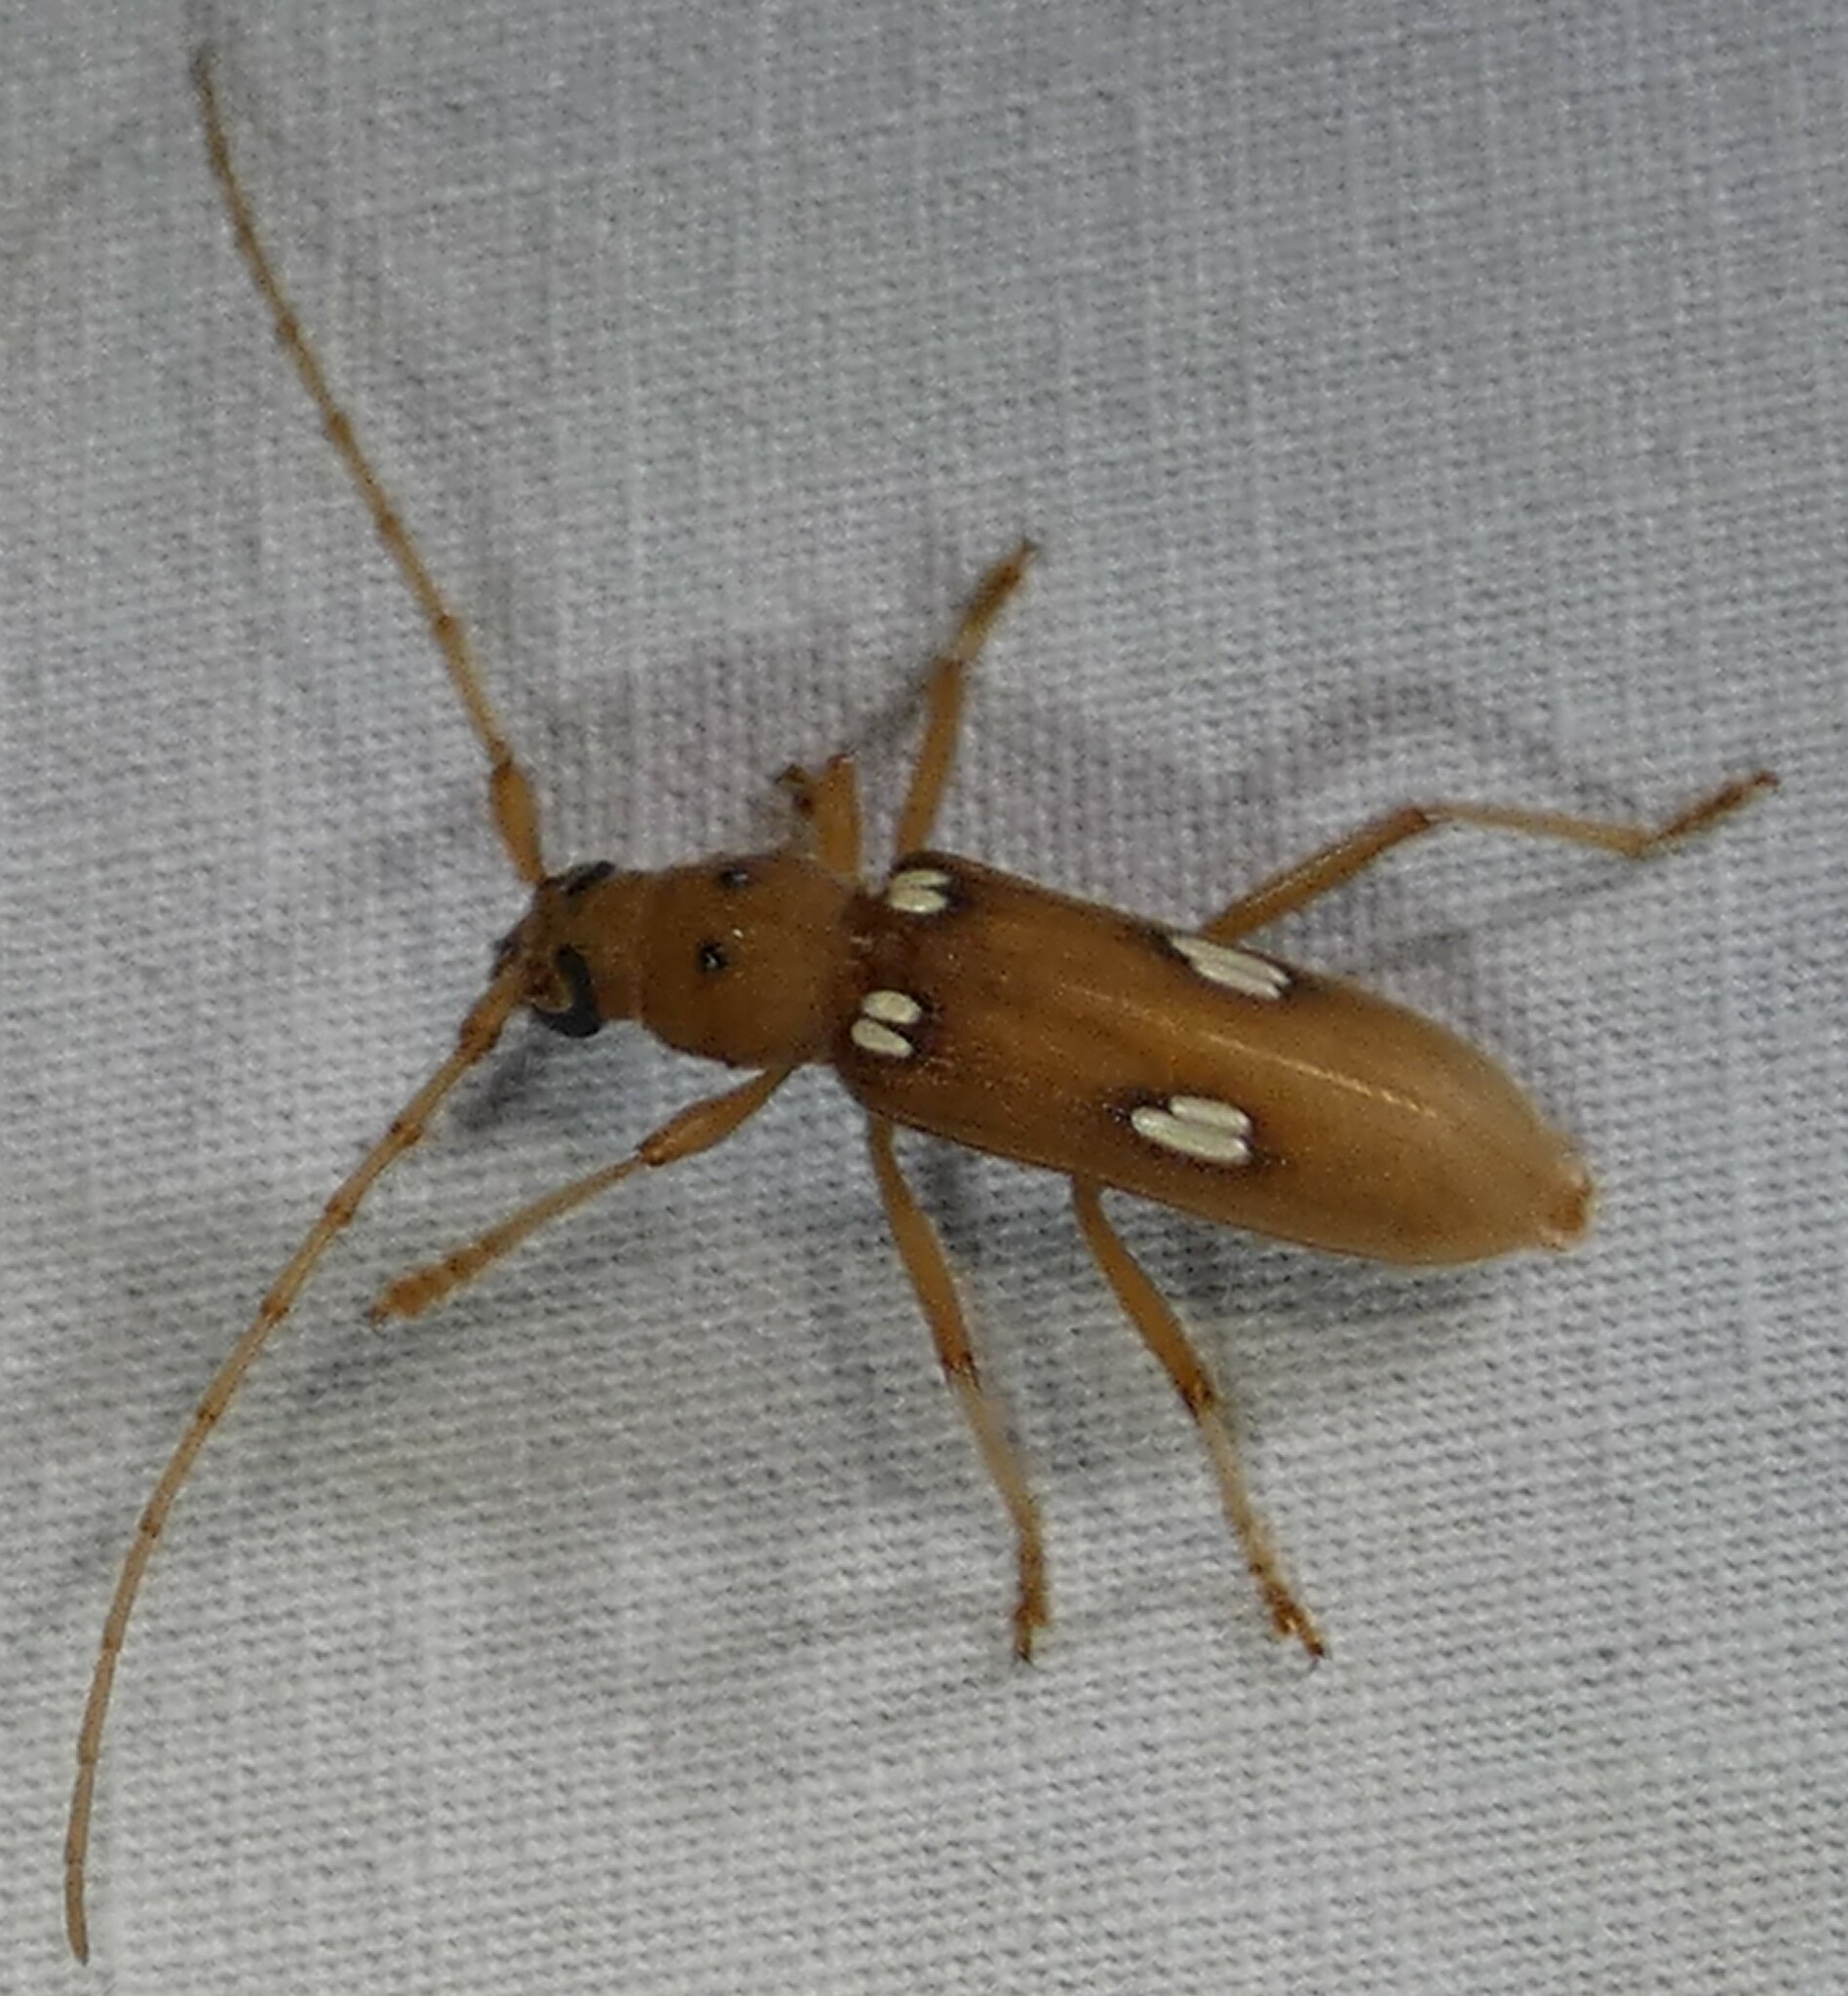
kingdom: Animalia
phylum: Arthropoda
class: Insecta
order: Coleoptera
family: Cerambycidae
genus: Eburia
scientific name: Eburia quadrigeminata
